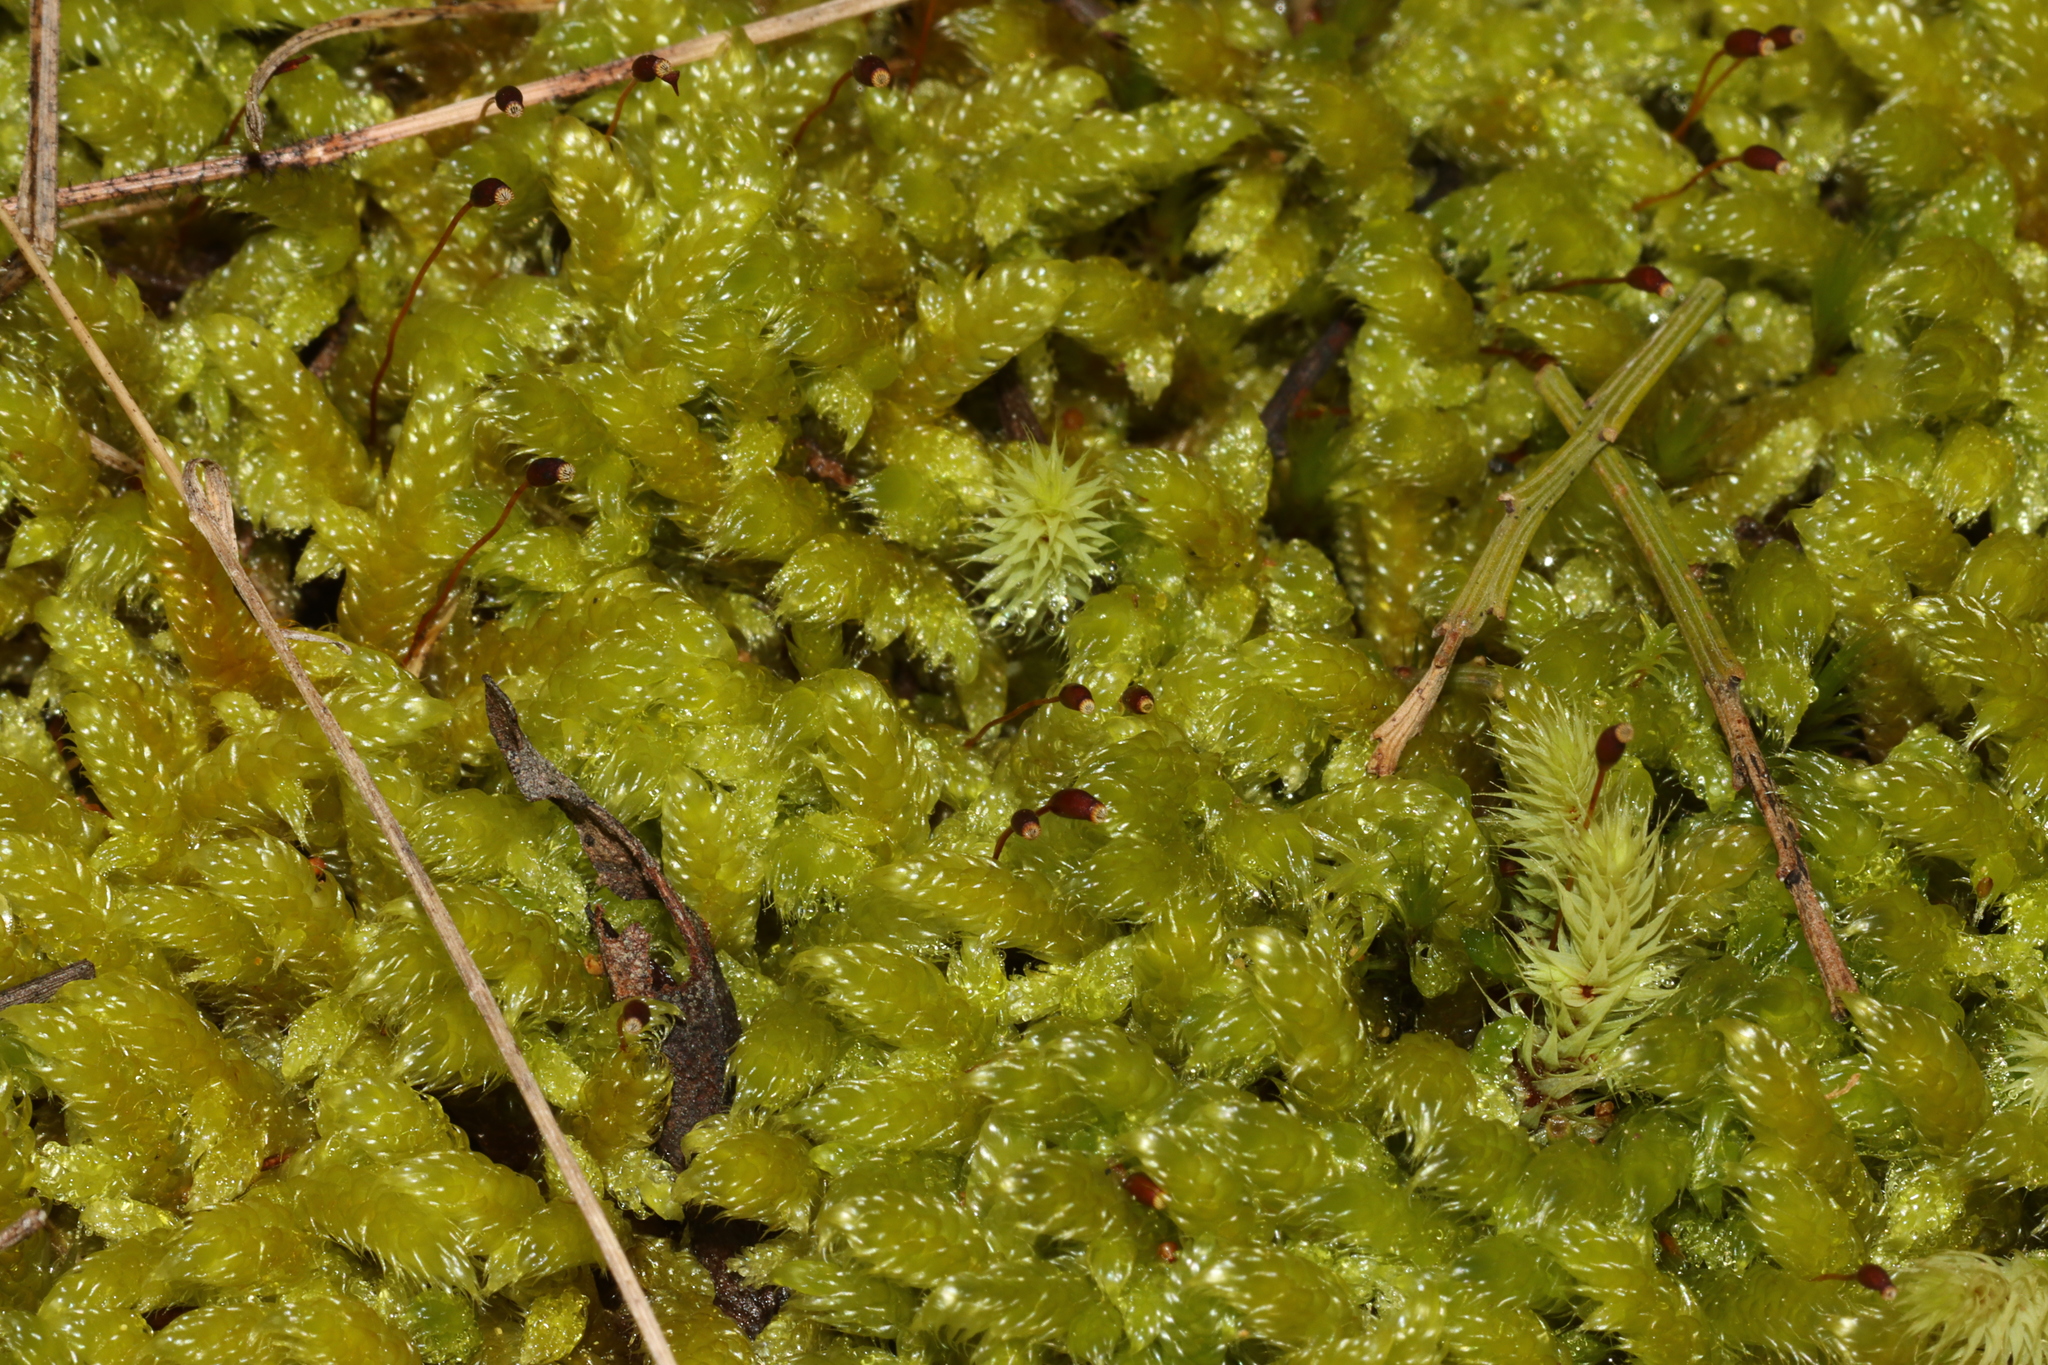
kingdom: Plantae
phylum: Bryophyta
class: Bryopsida
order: Hypnales
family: Hypnaceae
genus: Hypnum
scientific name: Hypnum cupressiforme
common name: Cypress-leaved plait-moss
